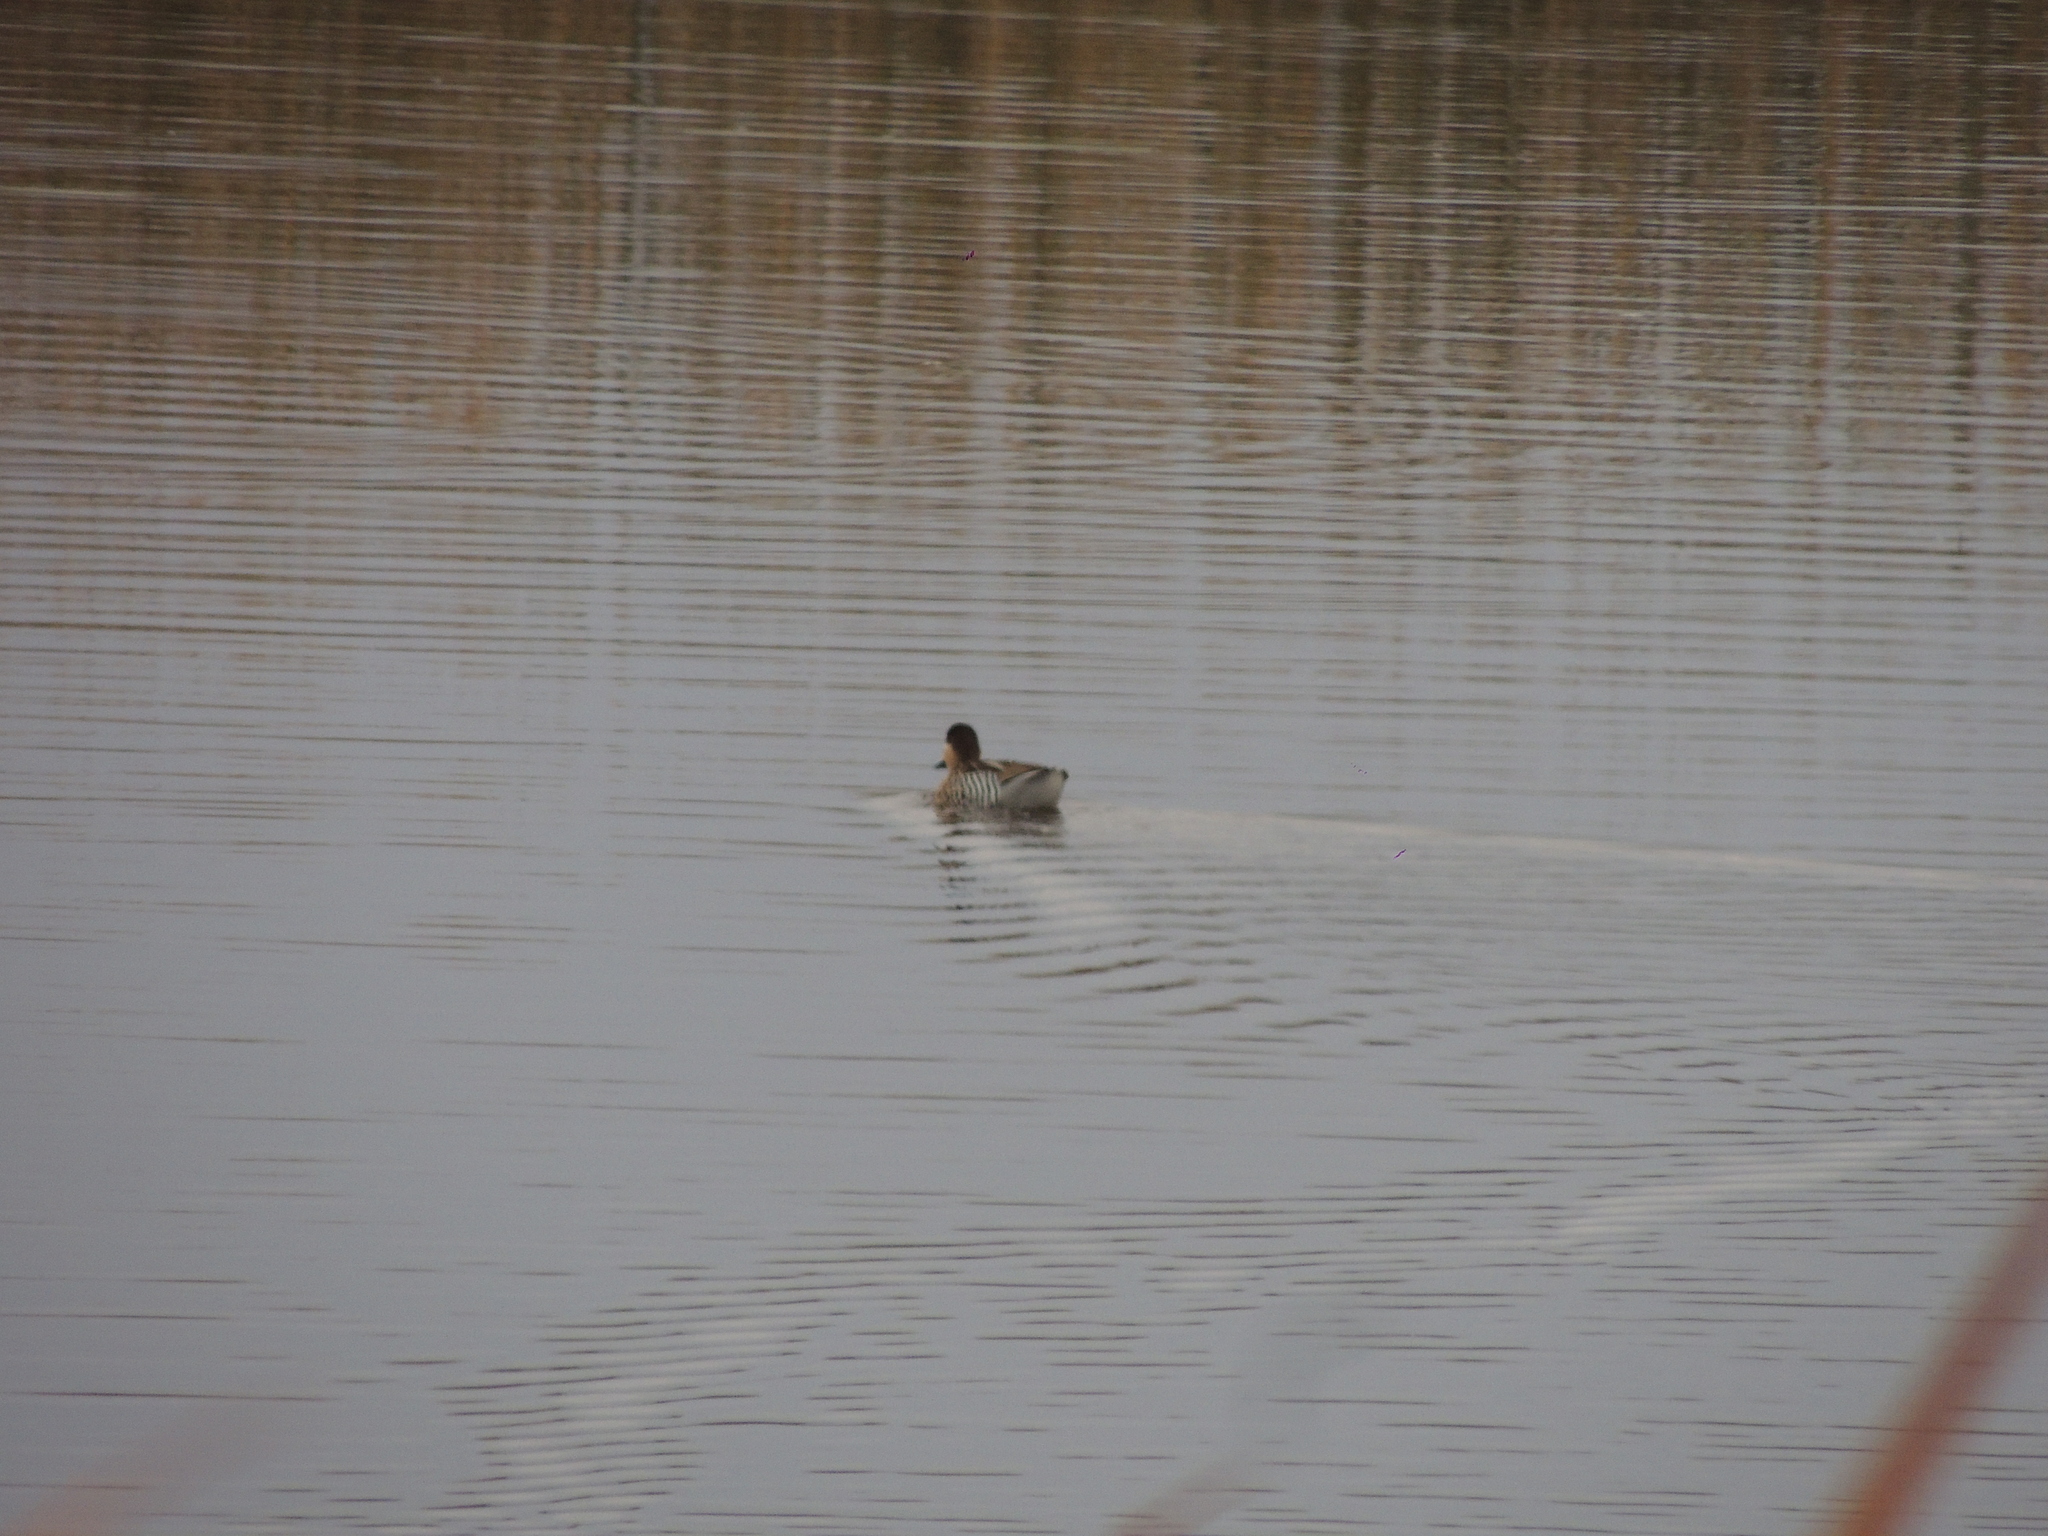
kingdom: Animalia
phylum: Chordata
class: Aves
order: Anseriformes
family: Anatidae
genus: Spatula
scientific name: Spatula versicolor
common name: Silver teal
